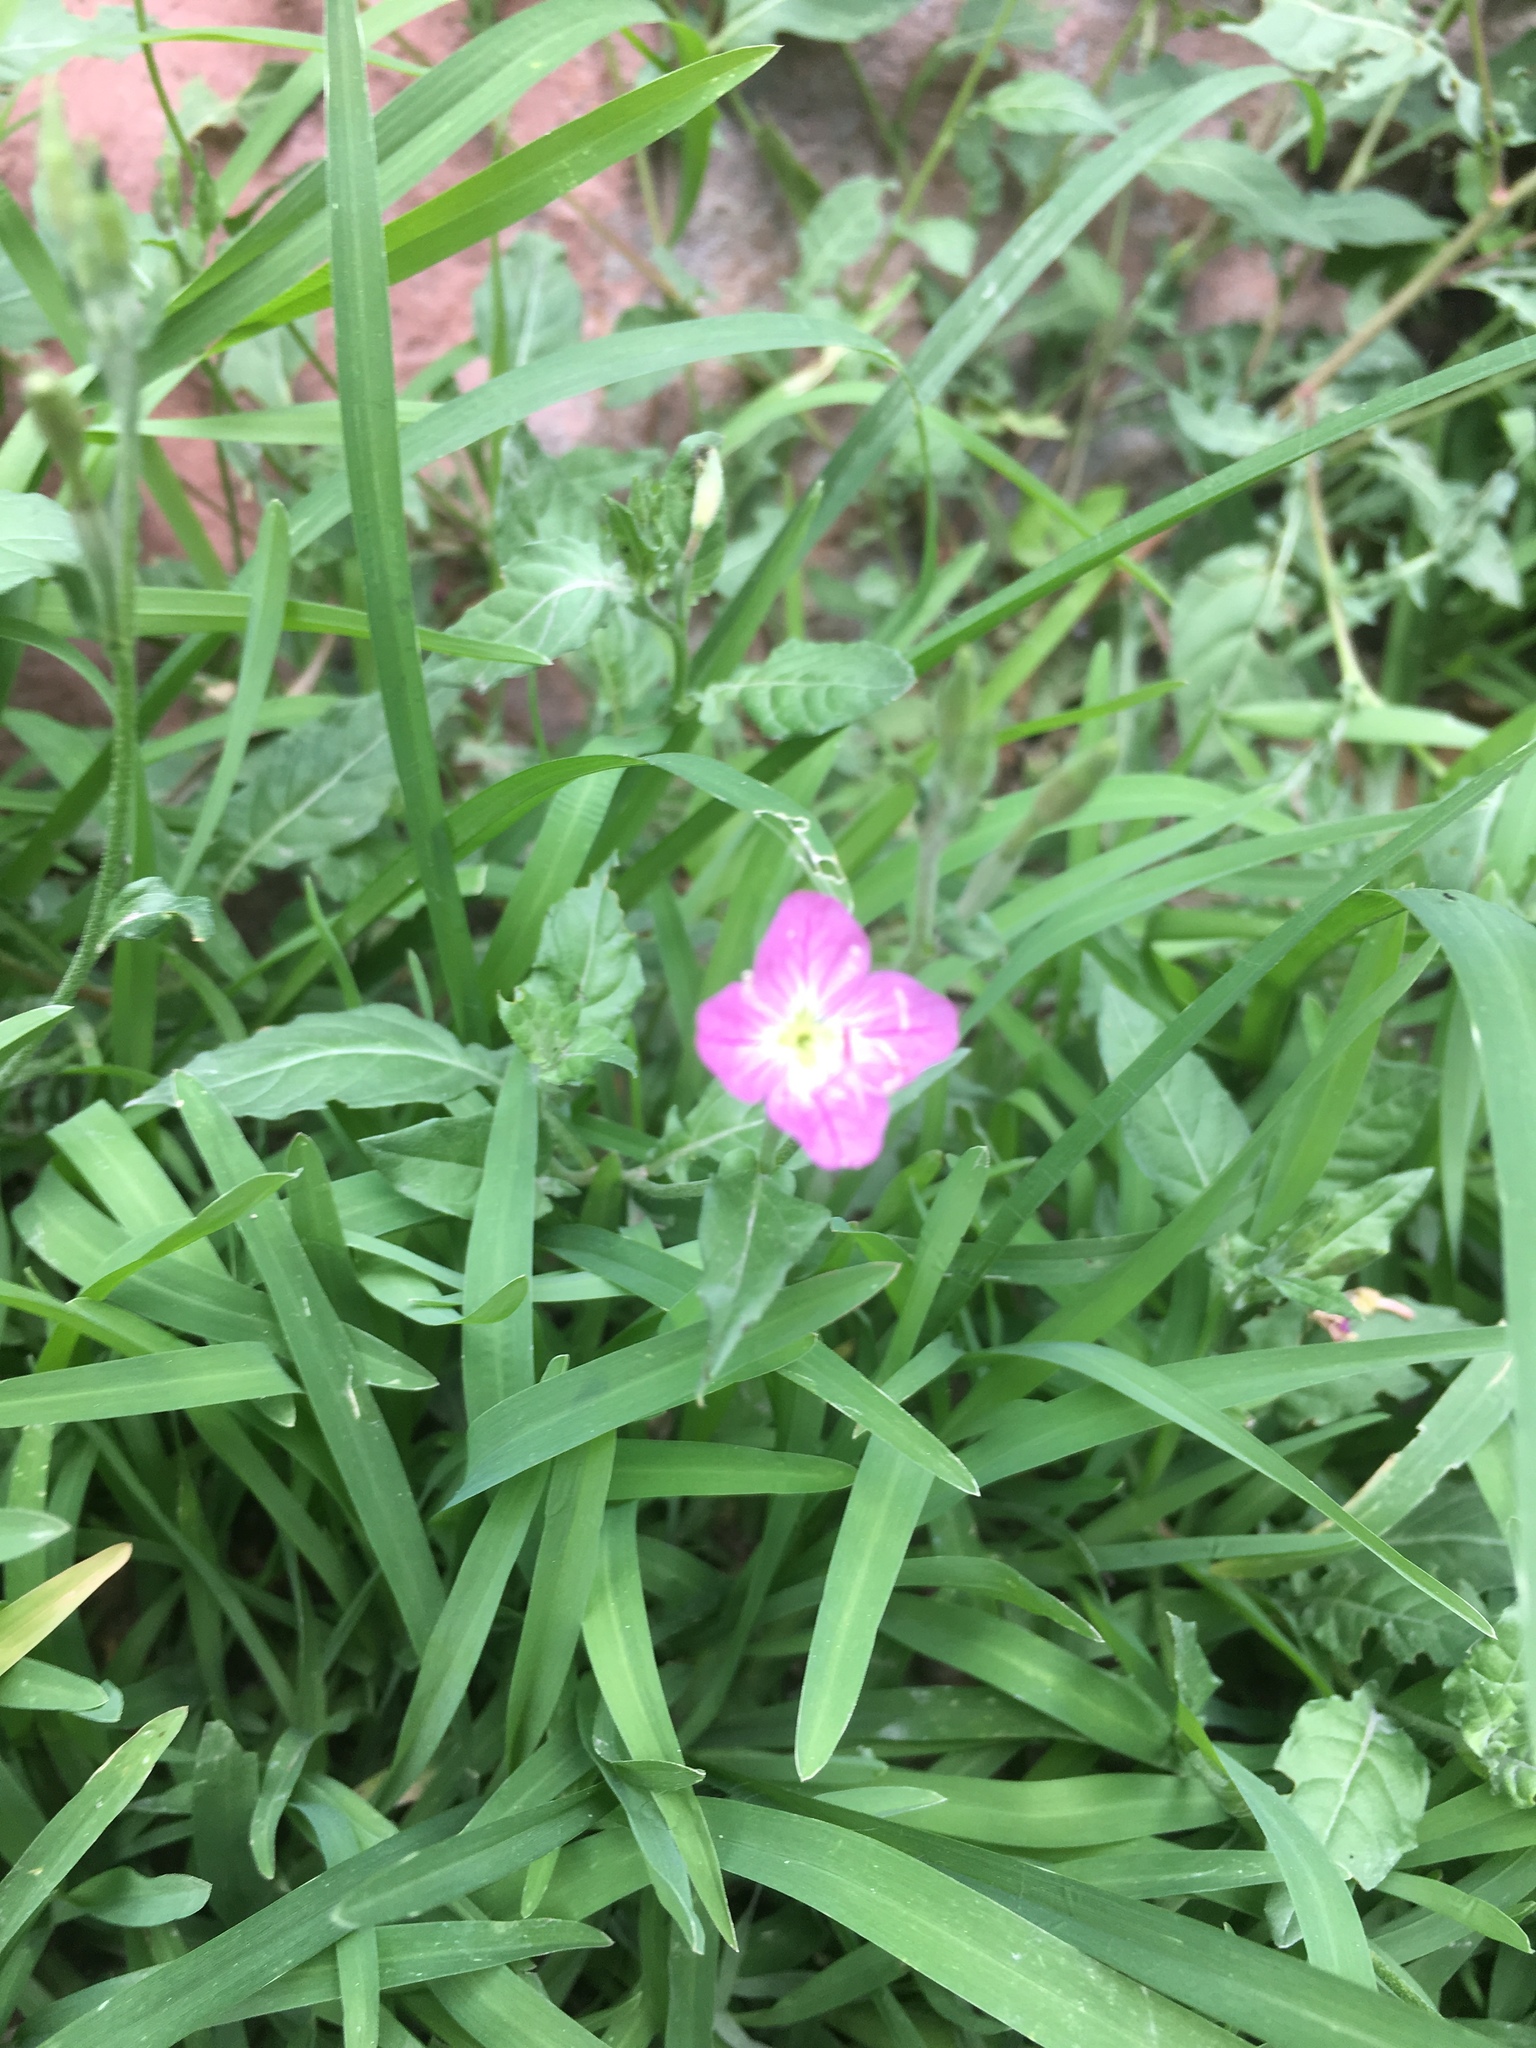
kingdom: Plantae
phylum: Tracheophyta
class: Magnoliopsida
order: Myrtales
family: Onagraceae
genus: Oenothera
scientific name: Oenothera rosea
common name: Rosy evening-primrose
